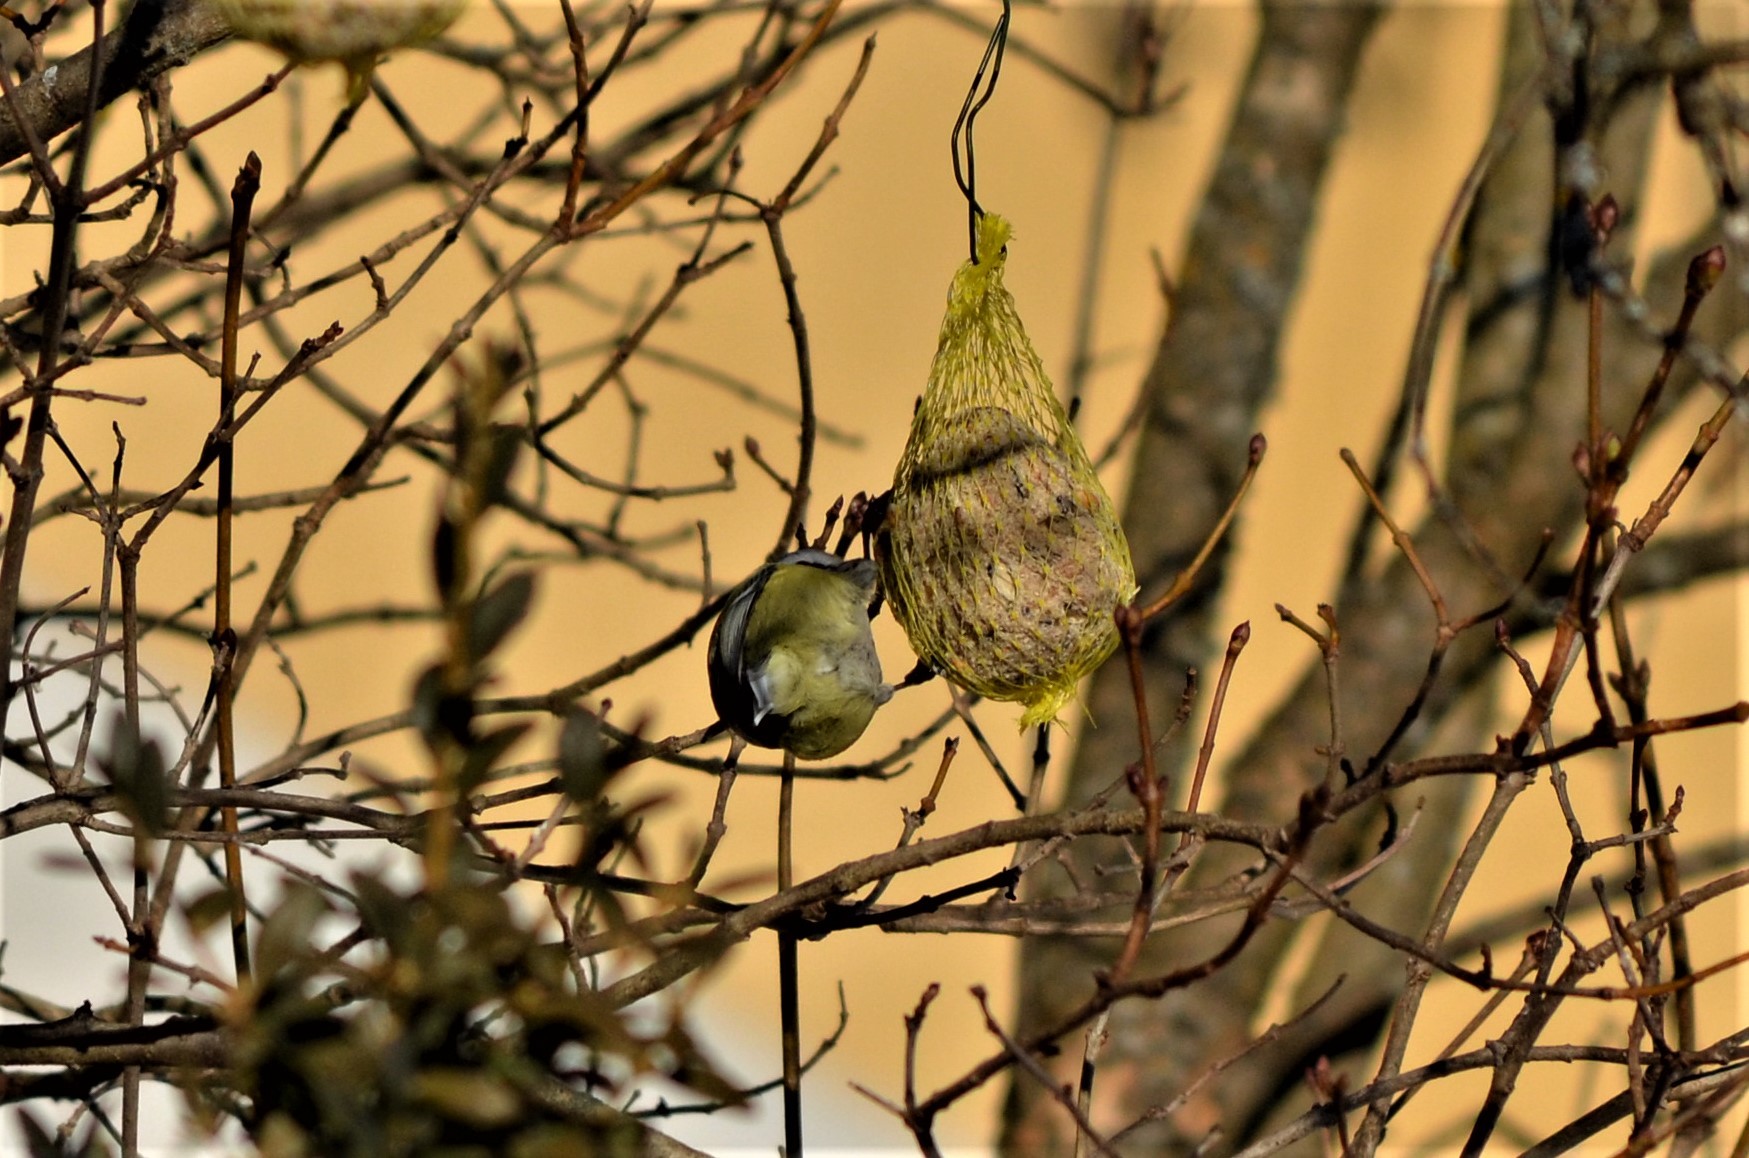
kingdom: Animalia
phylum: Chordata
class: Aves
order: Passeriformes
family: Paridae
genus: Cyanistes
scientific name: Cyanistes caeruleus
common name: Eurasian blue tit
